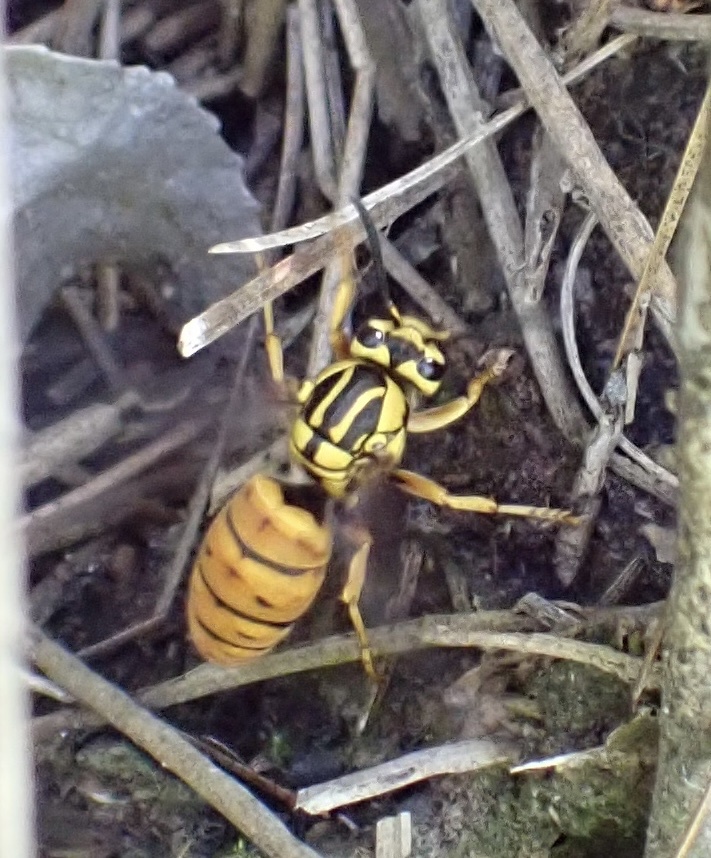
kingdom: Animalia
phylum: Arthropoda
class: Insecta
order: Hymenoptera
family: Vespidae
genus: Vespula
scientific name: Vespula squamosa
